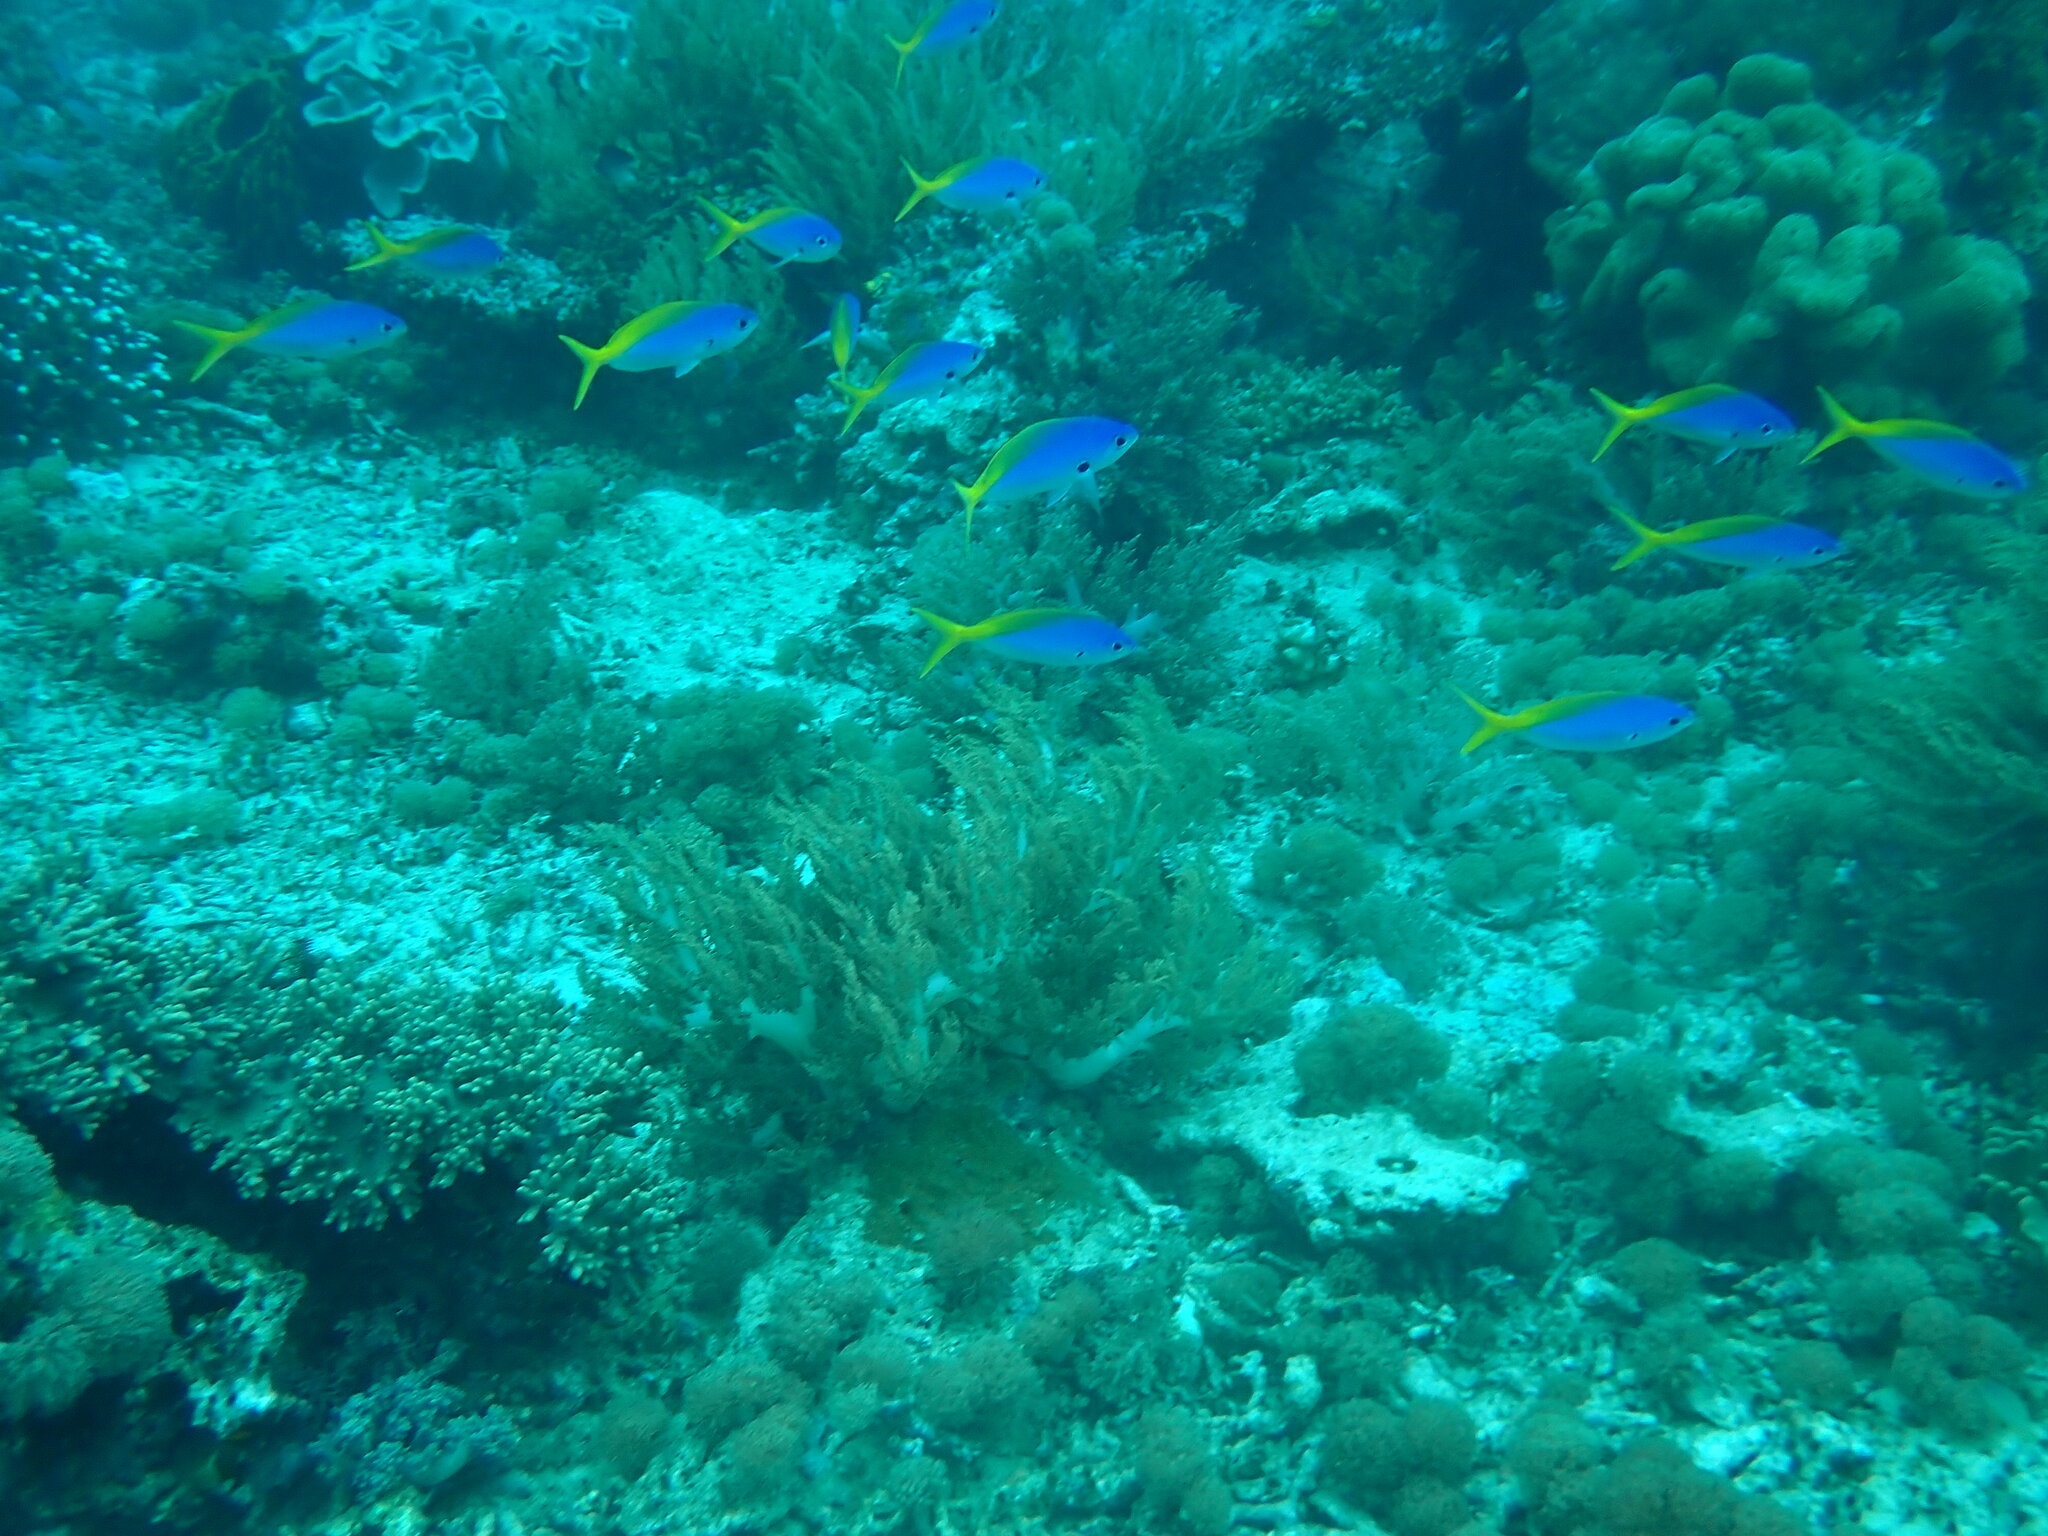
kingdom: Animalia
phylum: Chordata
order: Perciformes
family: Caesionidae
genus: Caesio
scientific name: Caesio teres
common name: Yellow and blueback fusilier
